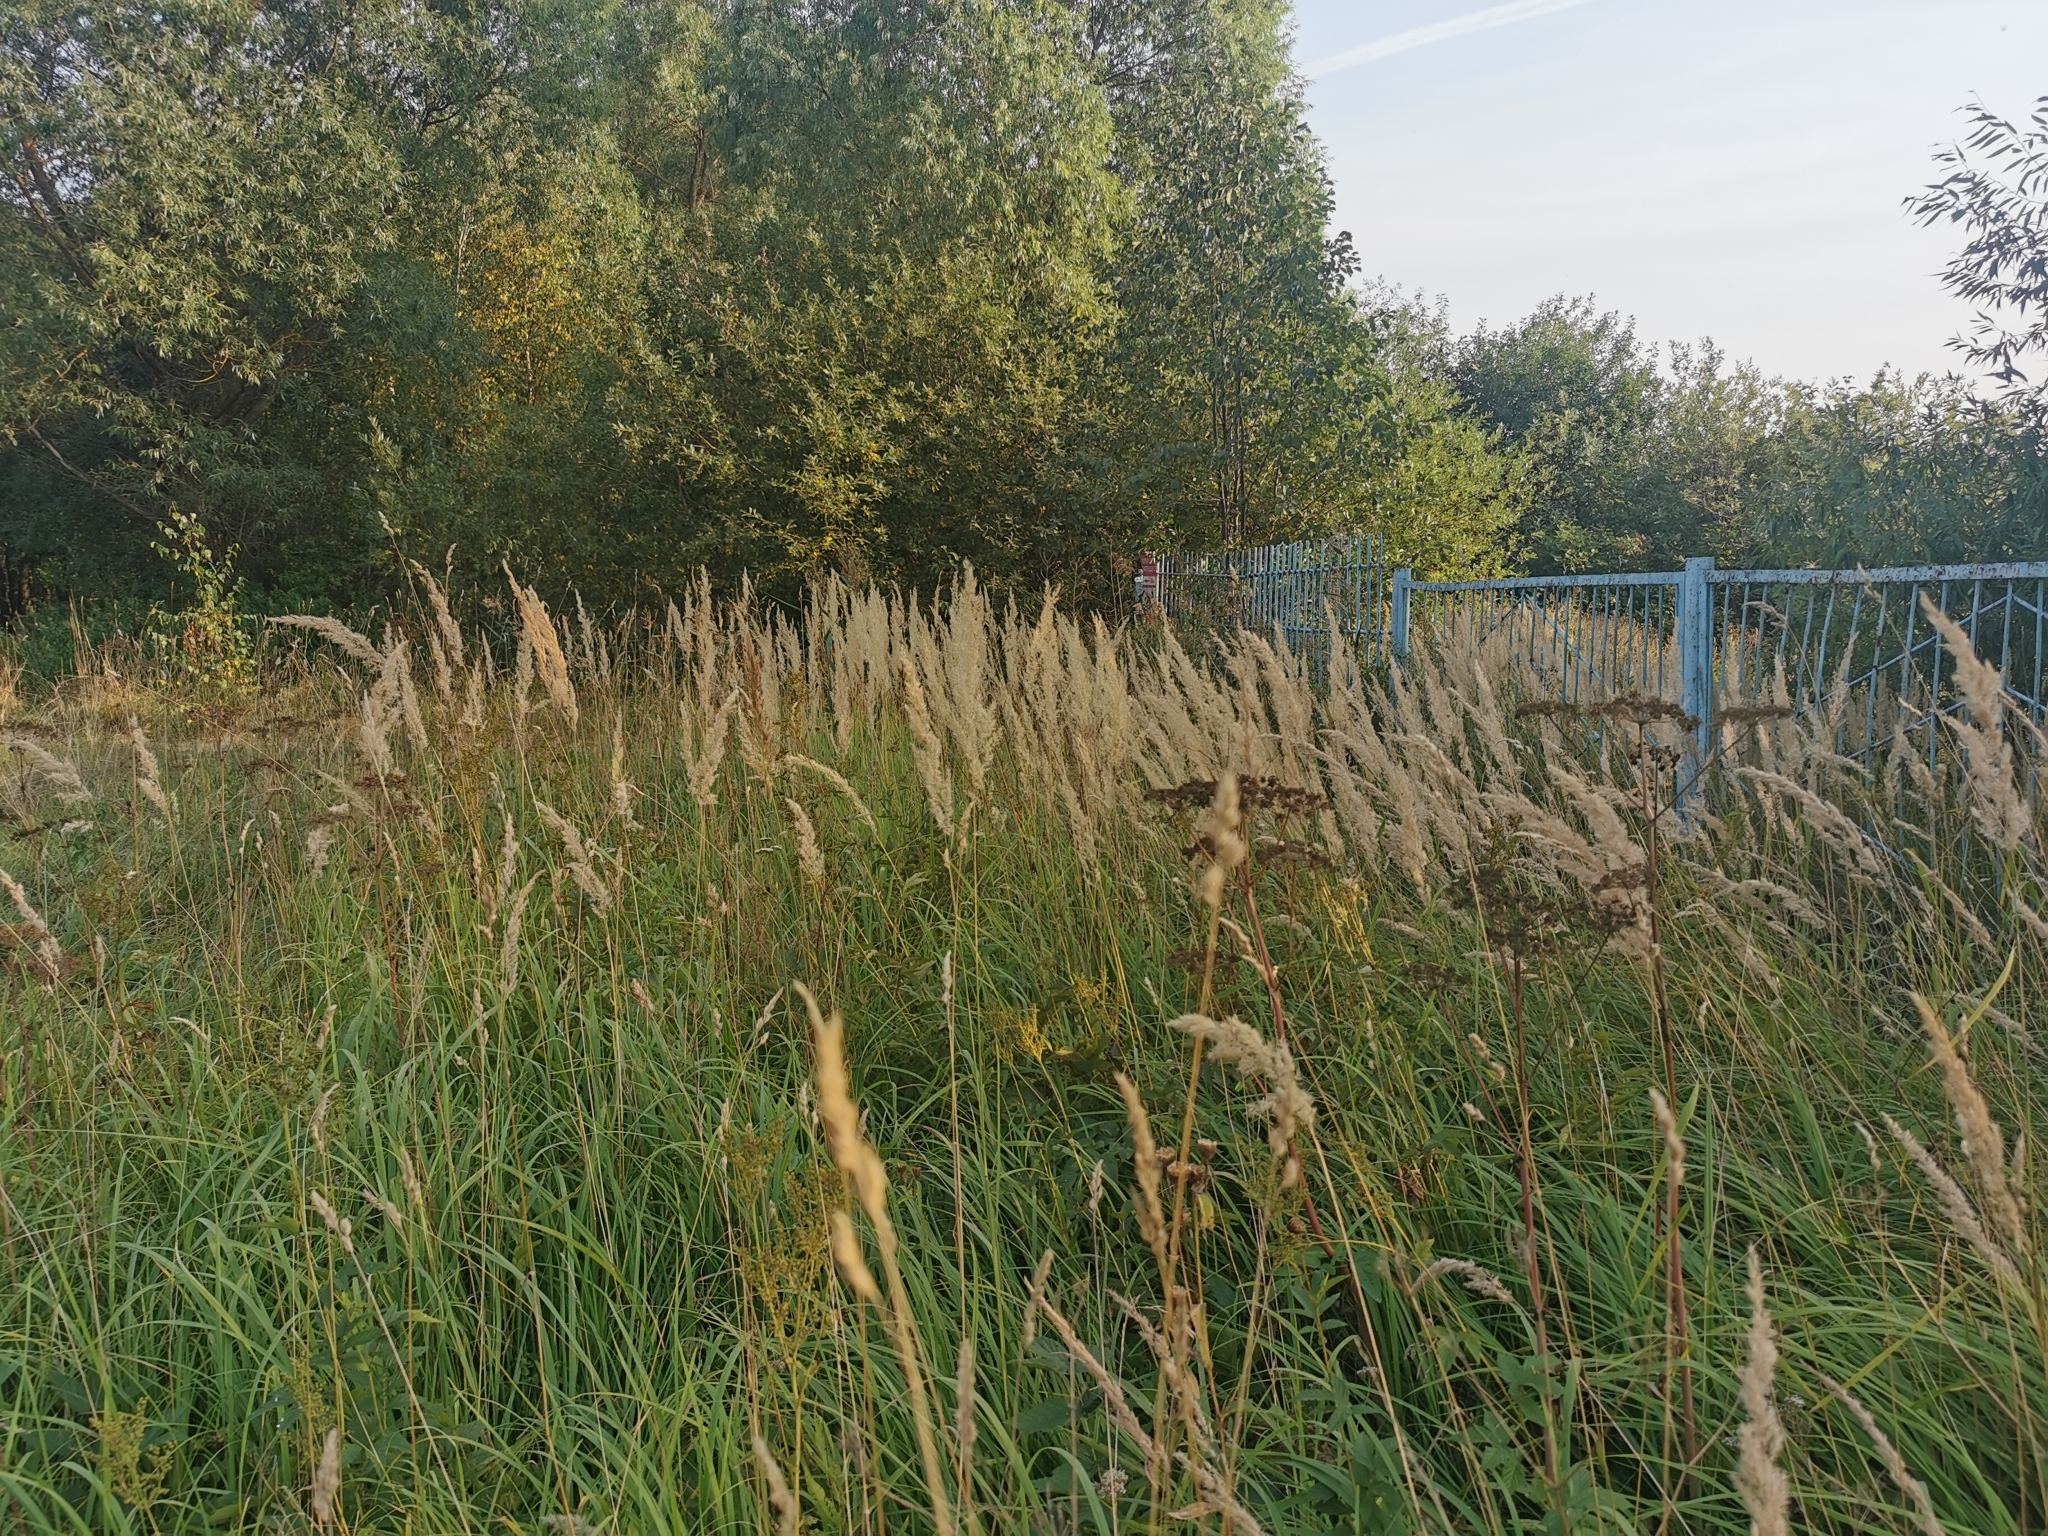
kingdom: Plantae
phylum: Tracheophyta
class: Liliopsida
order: Poales
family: Poaceae
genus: Calamagrostis
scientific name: Calamagrostis epigejos
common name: Wood small-reed
